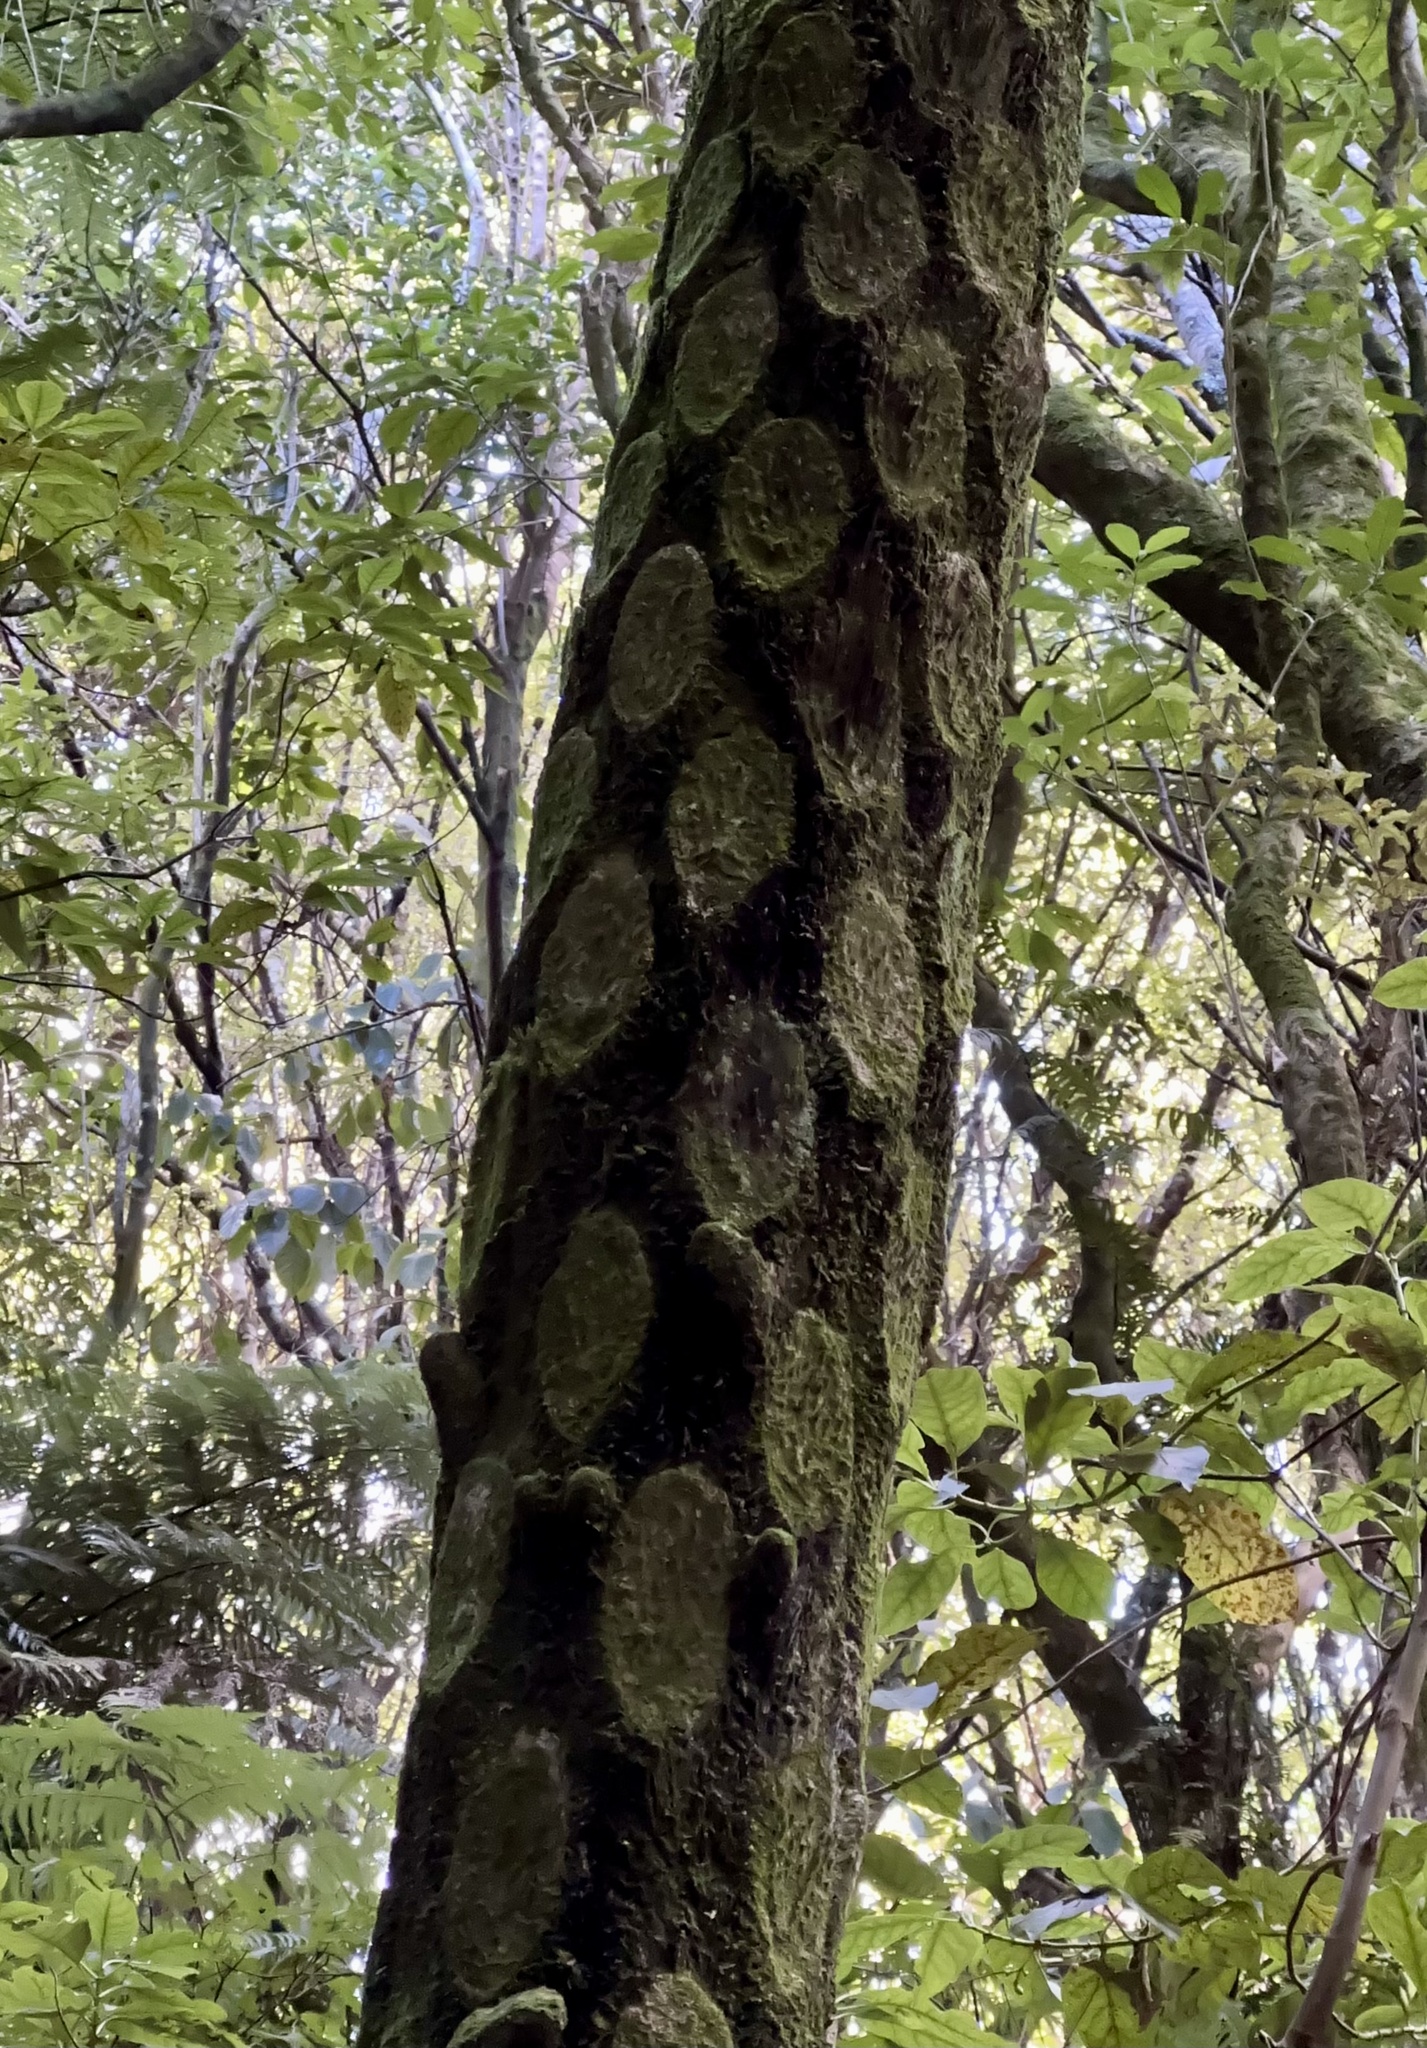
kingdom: Plantae
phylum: Tracheophyta
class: Polypodiopsida
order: Cyatheales
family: Cyatheaceae
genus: Sphaeropteris
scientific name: Sphaeropteris medullaris
